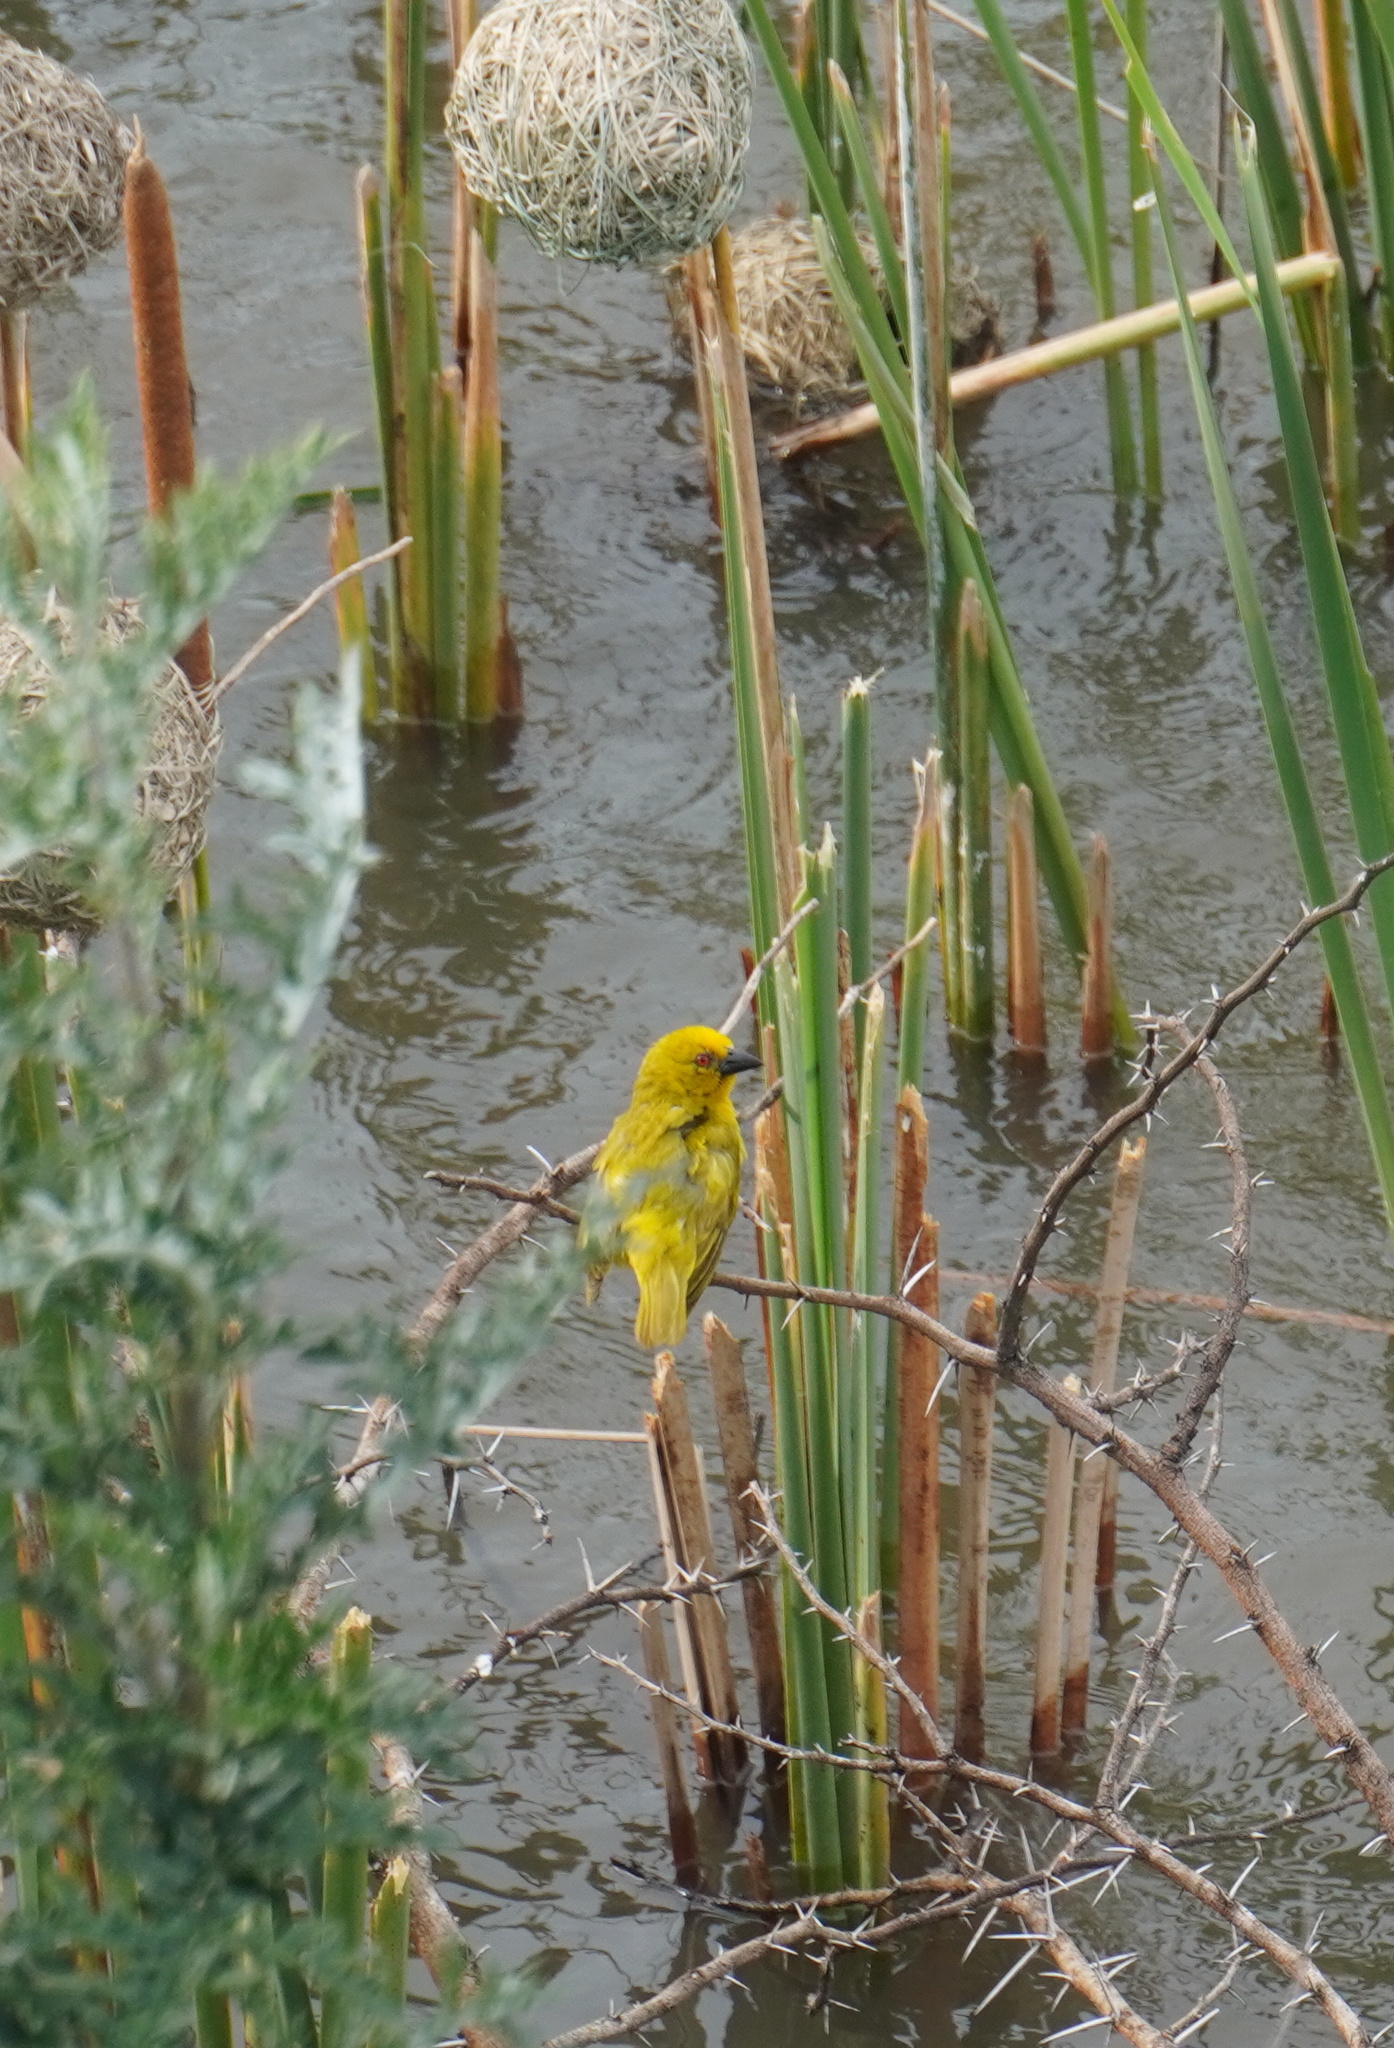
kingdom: Animalia
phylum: Chordata
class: Aves
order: Passeriformes
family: Ploceidae
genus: Ploceus
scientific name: Ploceus subaureus
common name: Yellow weaver
